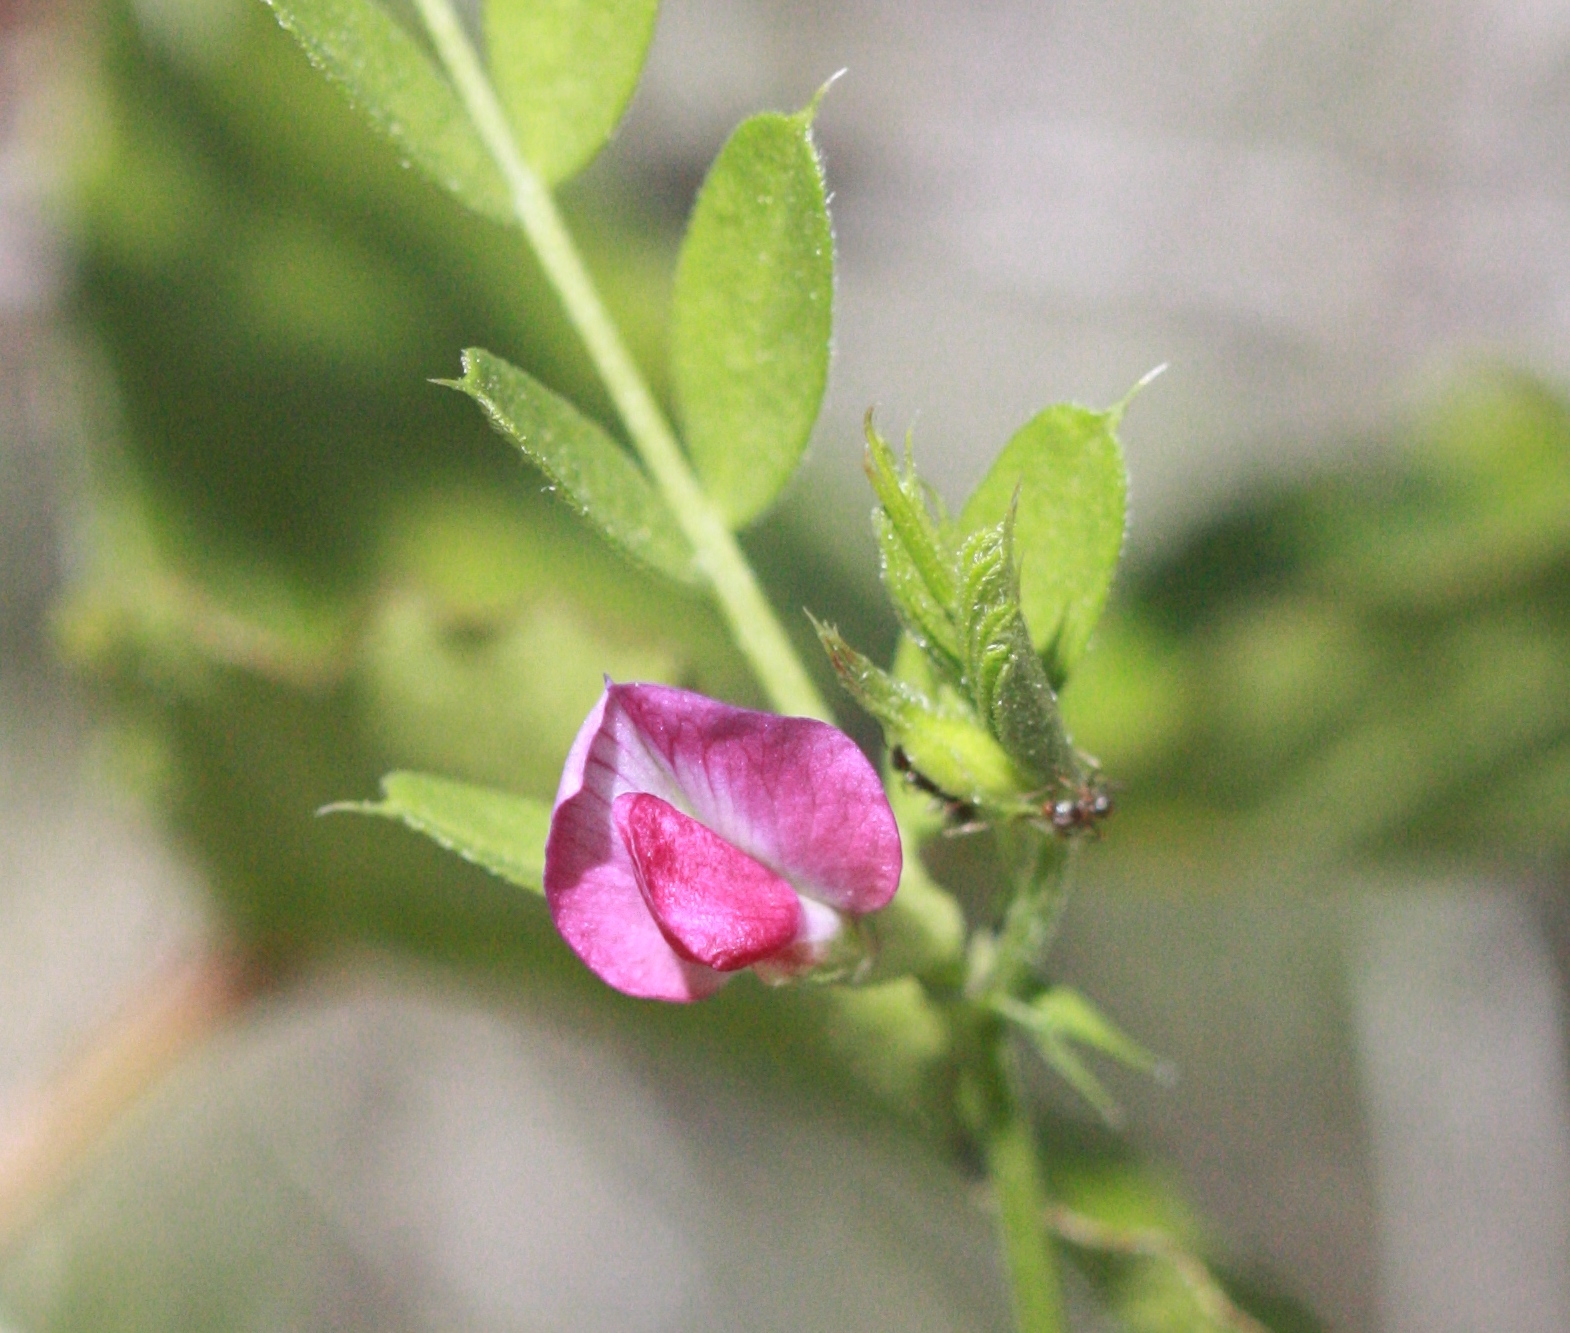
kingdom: Plantae
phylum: Tracheophyta
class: Magnoliopsida
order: Fabales
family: Fabaceae
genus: Vicia
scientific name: Vicia sativa
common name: Garden vetch
